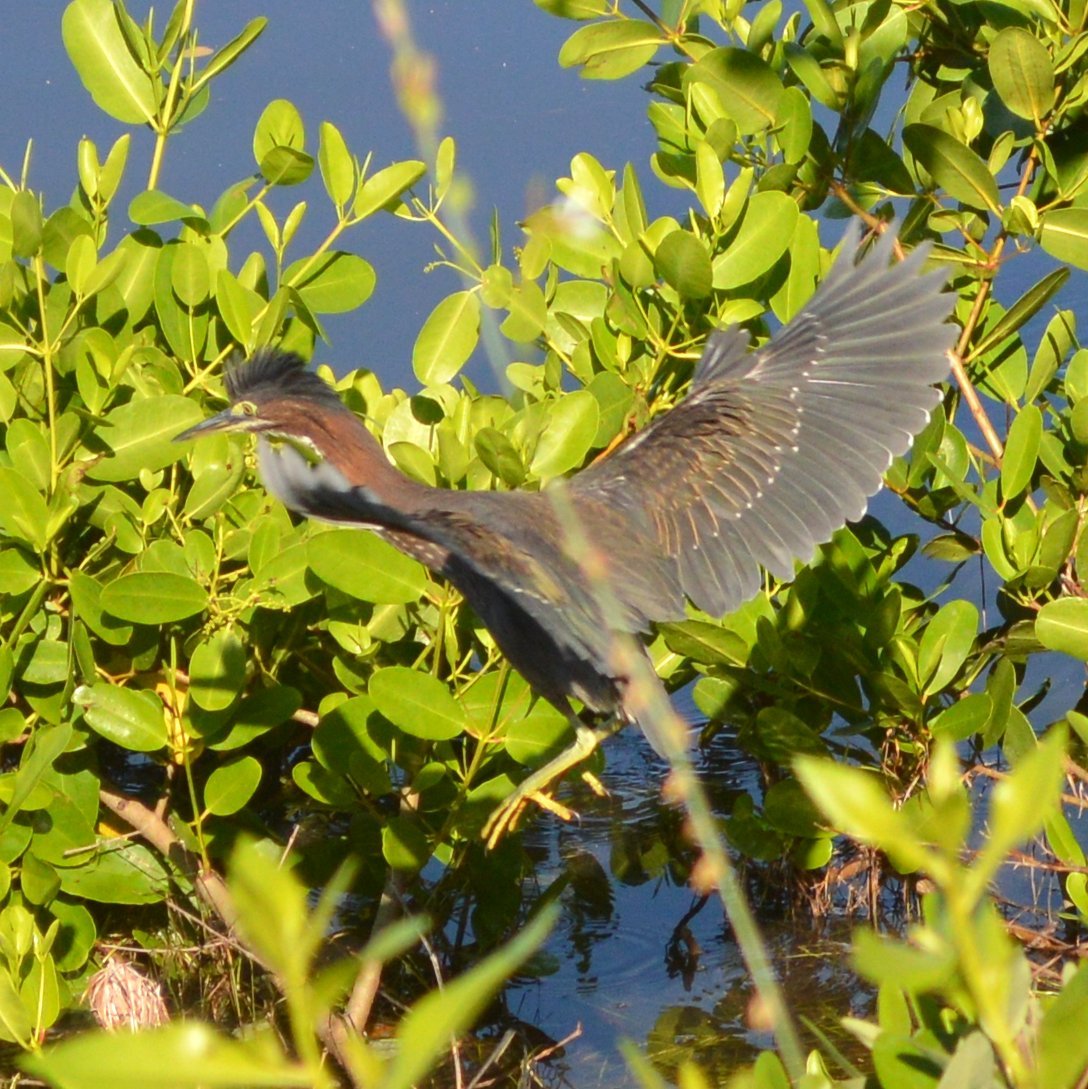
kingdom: Animalia
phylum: Chordata
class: Aves
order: Pelecaniformes
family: Ardeidae
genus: Butorides
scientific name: Butorides virescens
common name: Green heron
